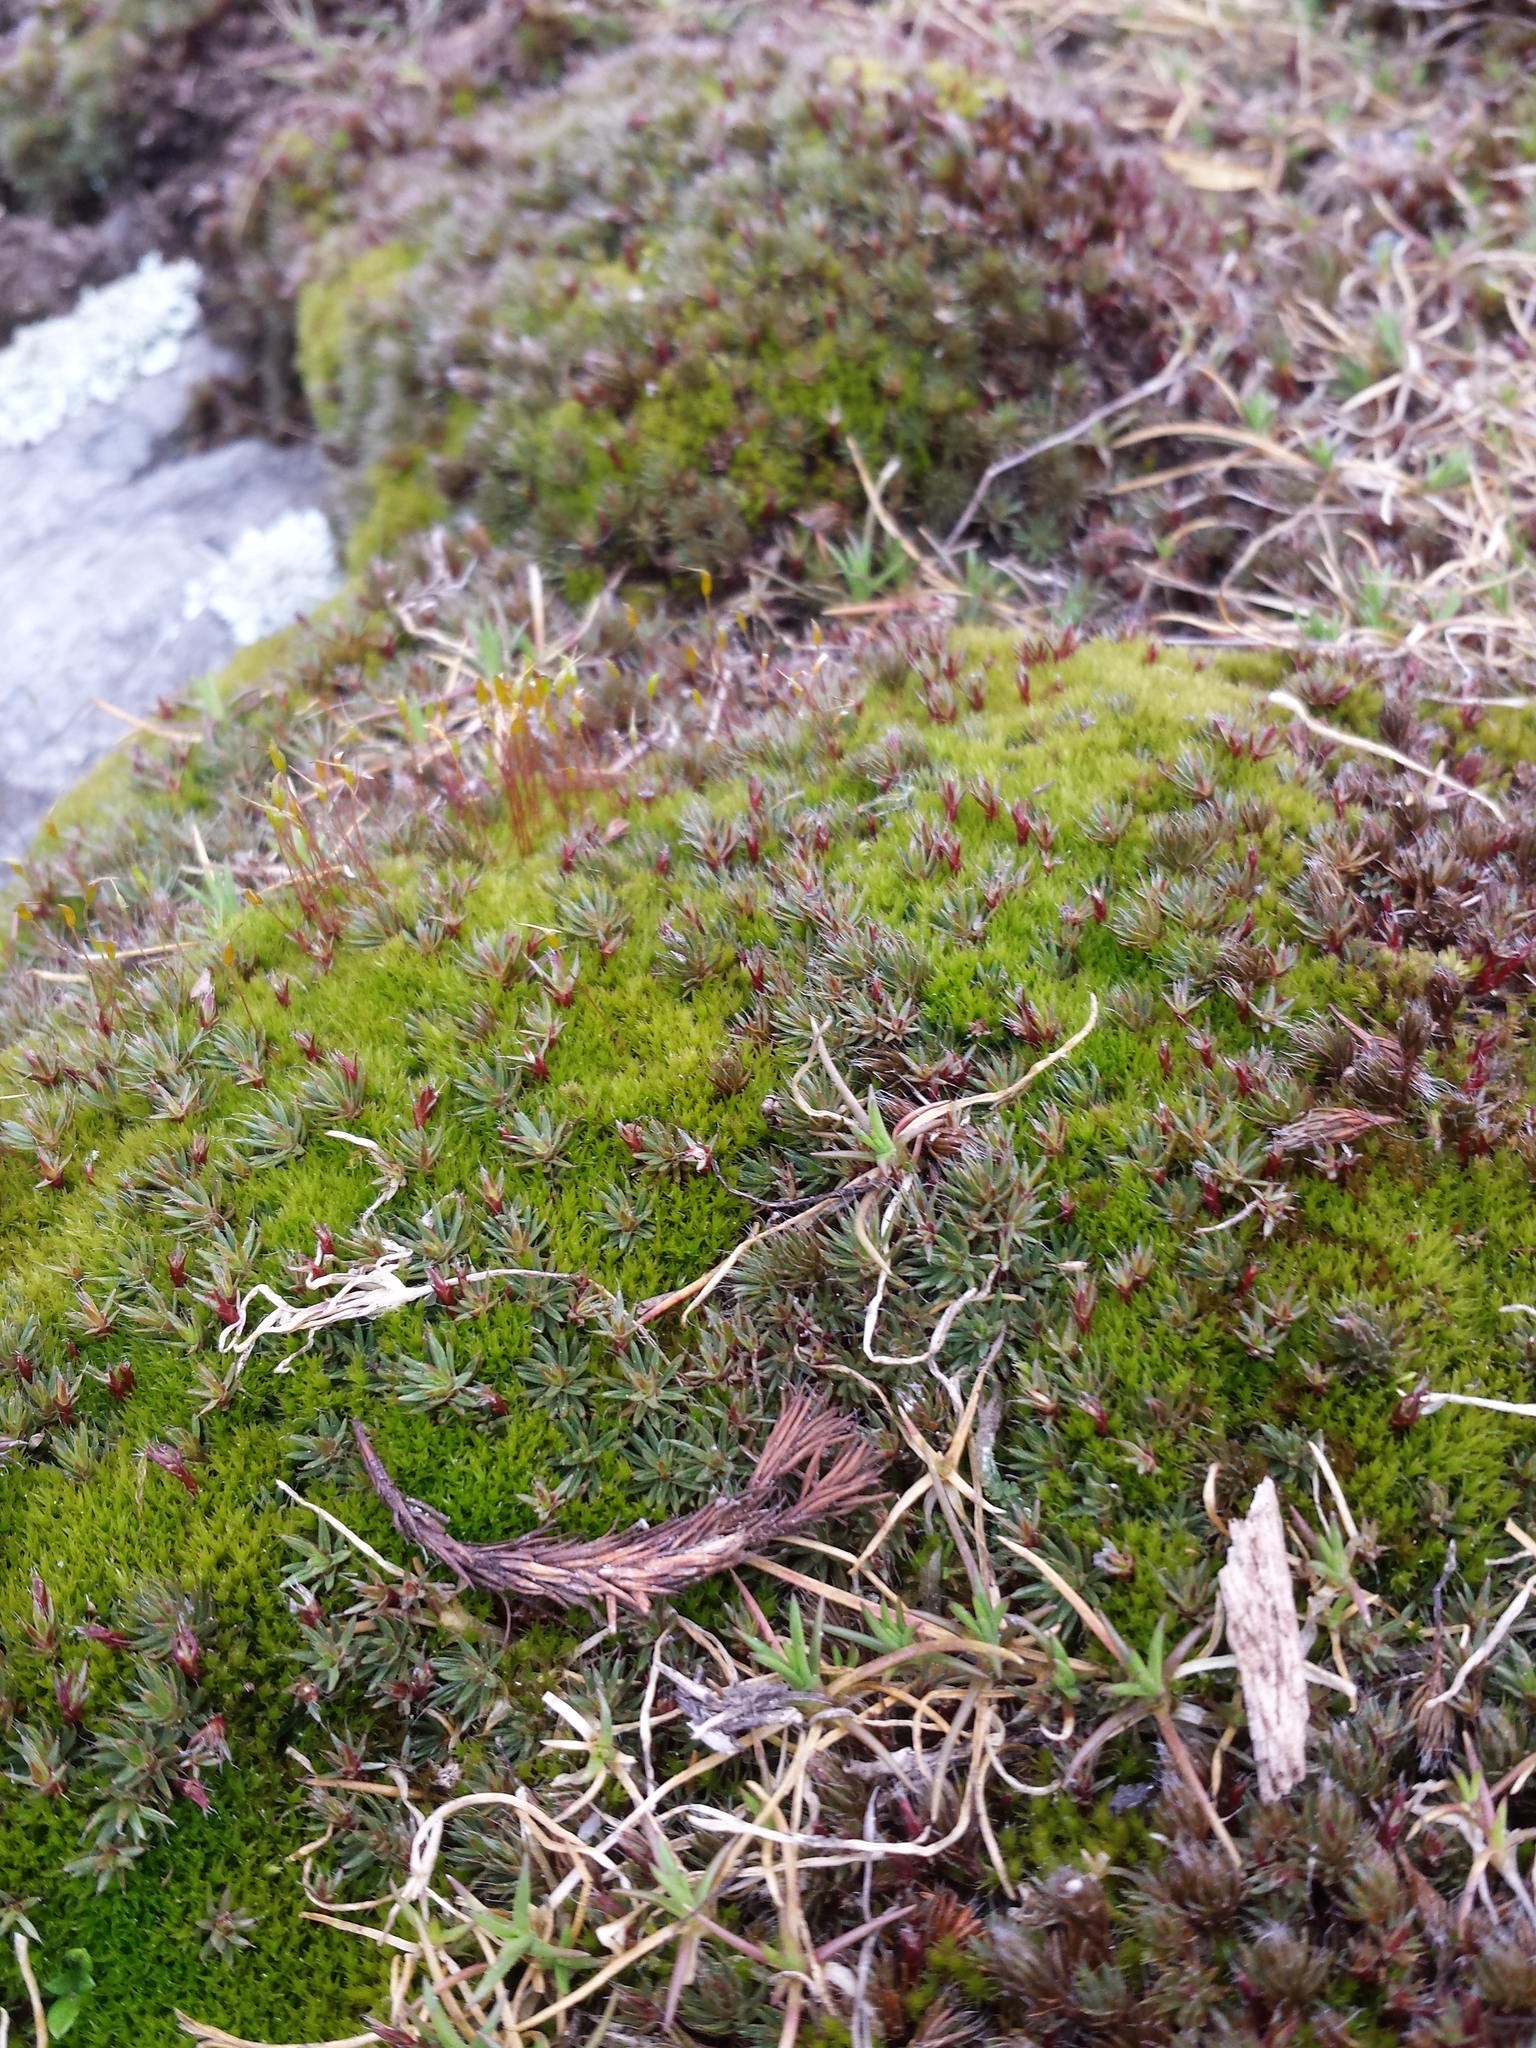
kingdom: Plantae
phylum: Bryophyta
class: Polytrichopsida
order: Polytrichales
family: Polytrichaceae
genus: Polytrichum
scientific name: Polytrichum piliferum
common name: Bristly haircap
